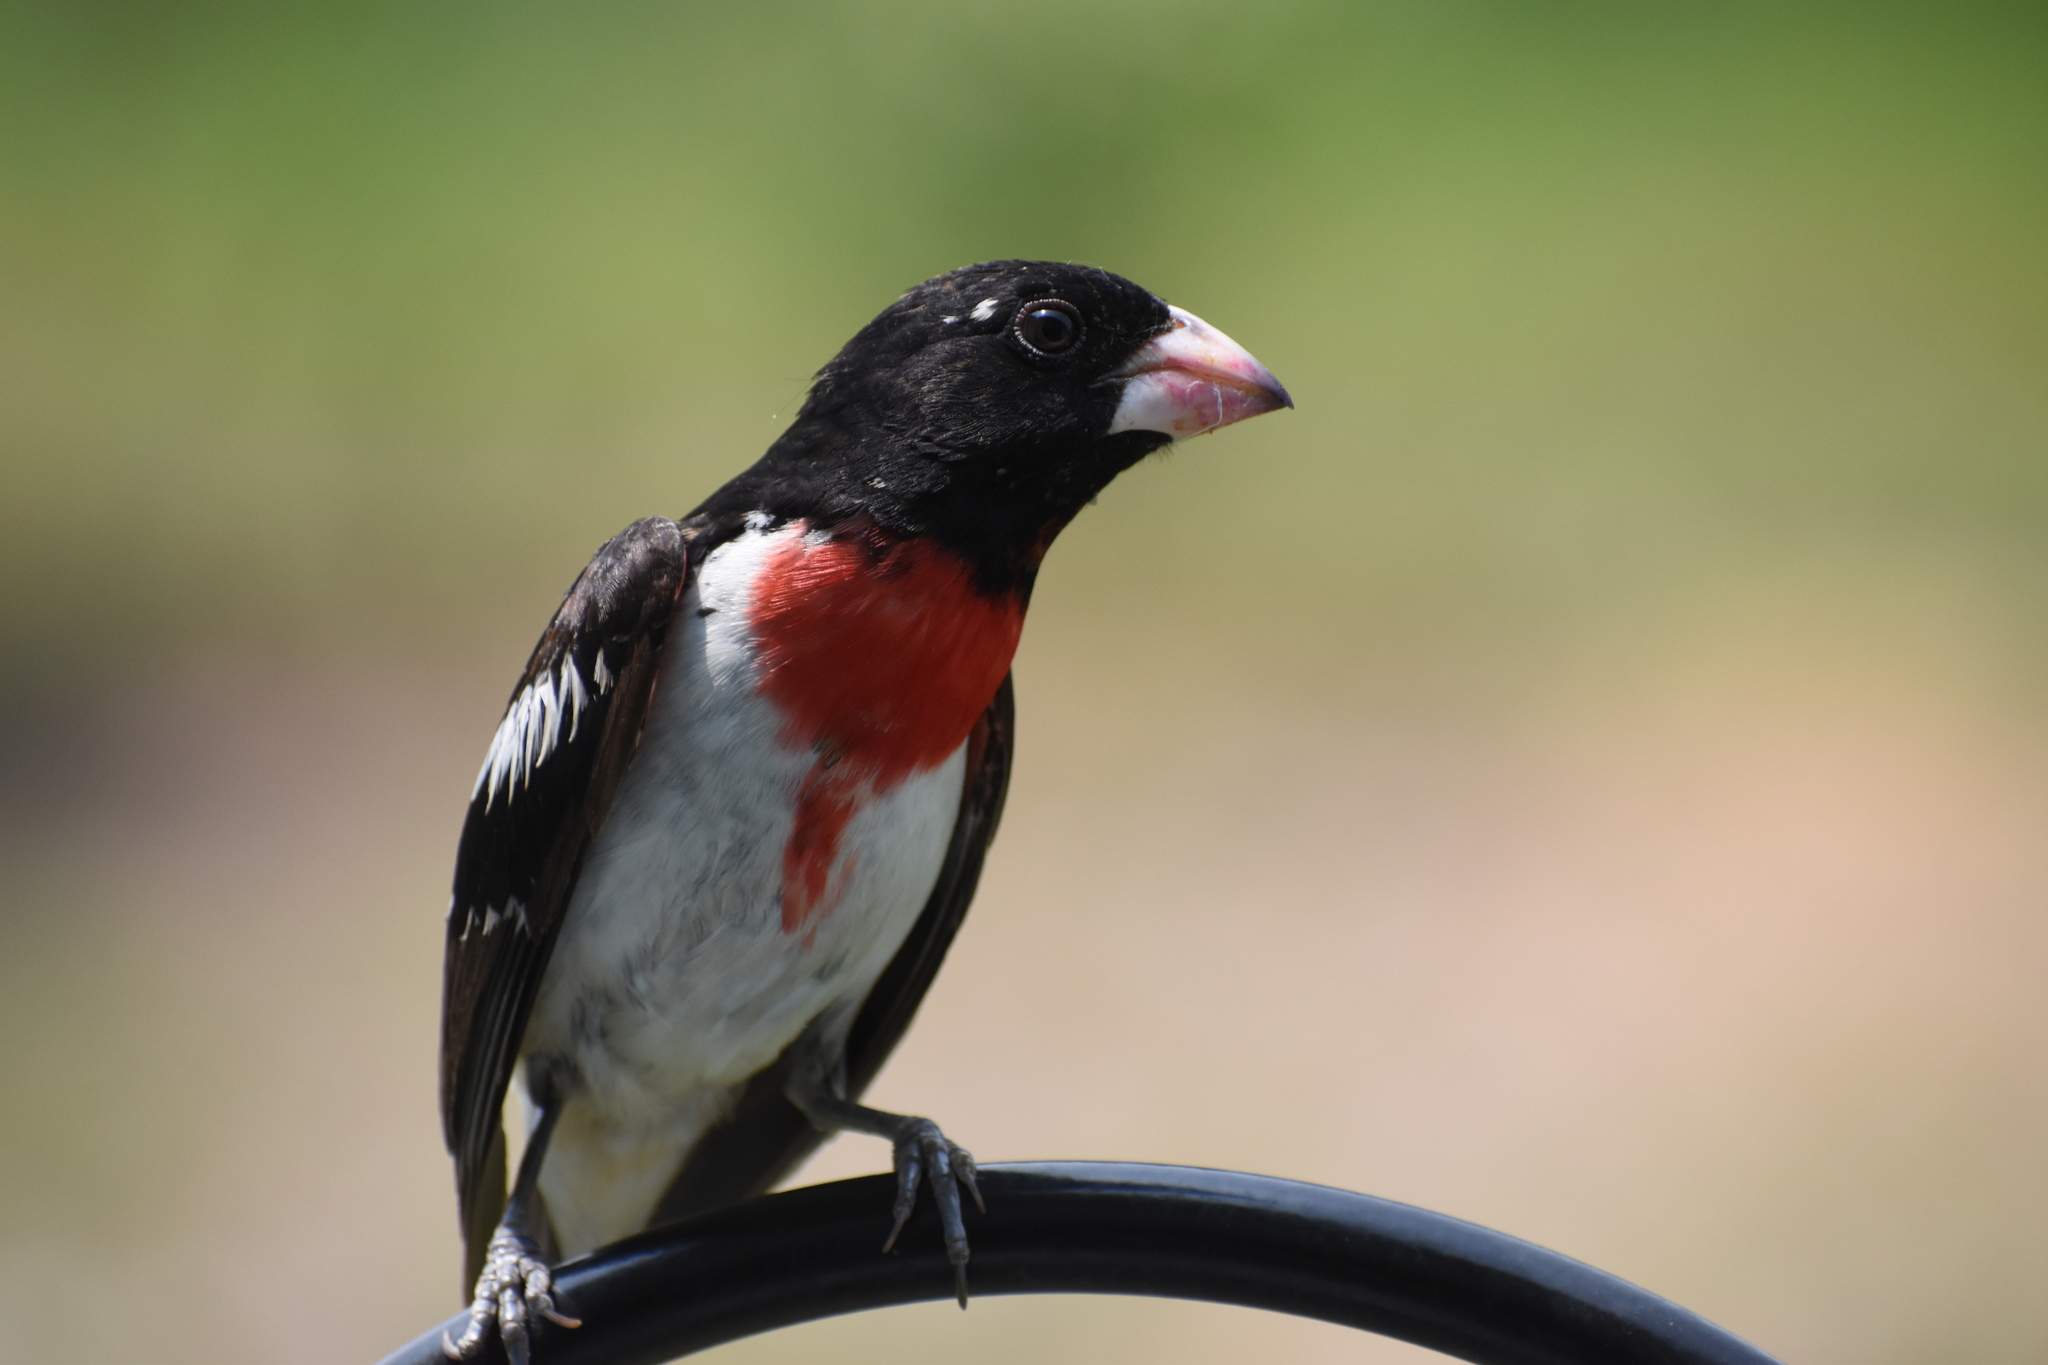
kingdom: Animalia
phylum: Chordata
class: Aves
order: Passeriformes
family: Cardinalidae
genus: Pheucticus
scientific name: Pheucticus ludovicianus
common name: Rose-breasted grosbeak
